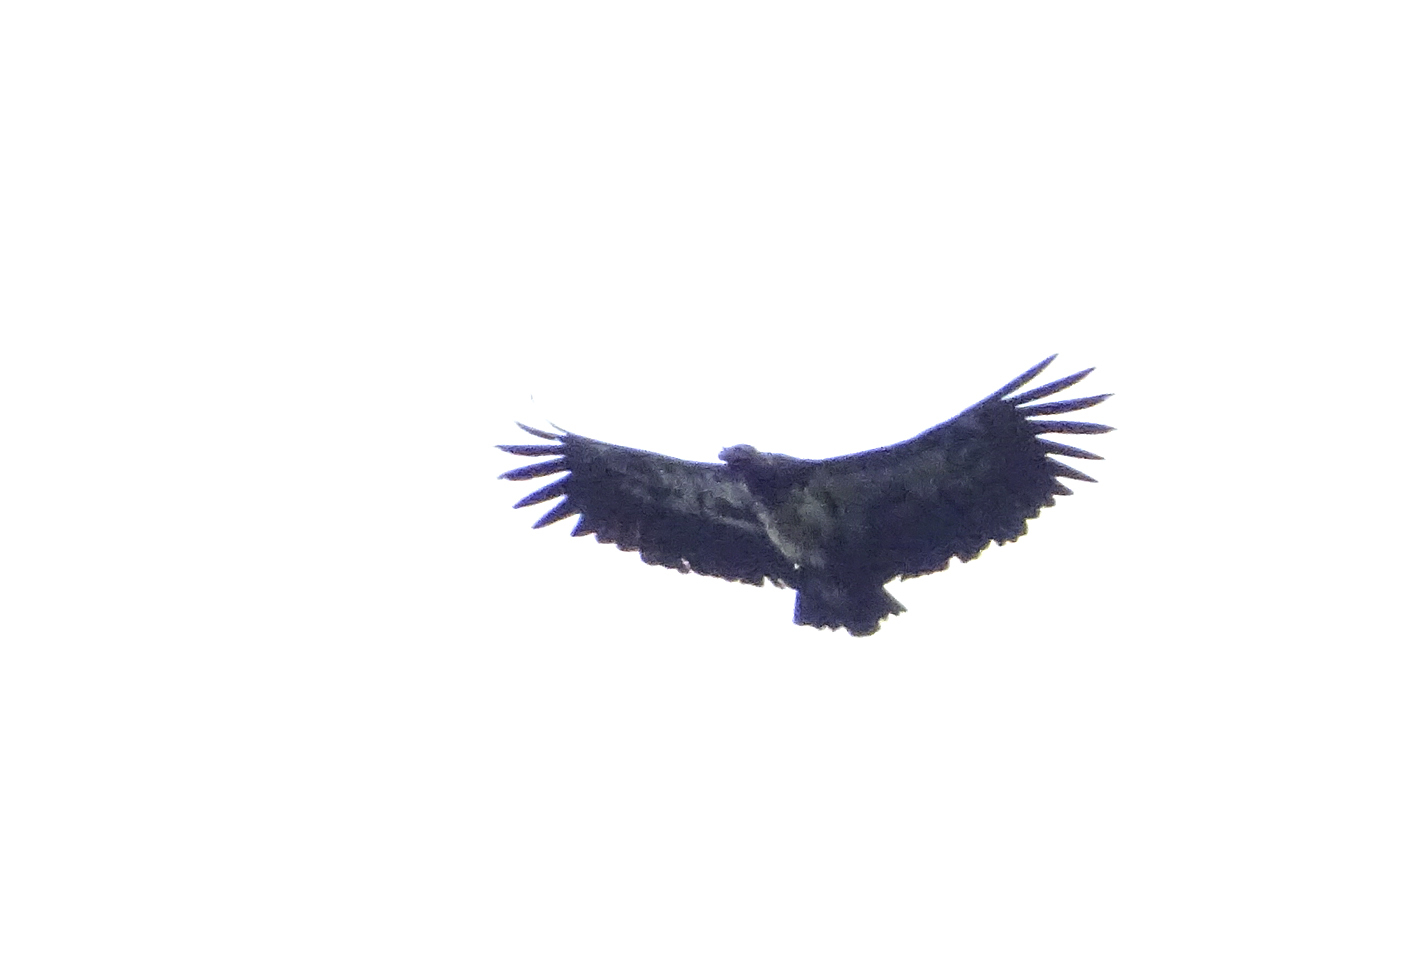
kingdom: Animalia
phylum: Chordata
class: Aves
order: Accipitriformes
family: Cathartidae
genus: Sarcoramphus
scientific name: Sarcoramphus papa
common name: King vulture
